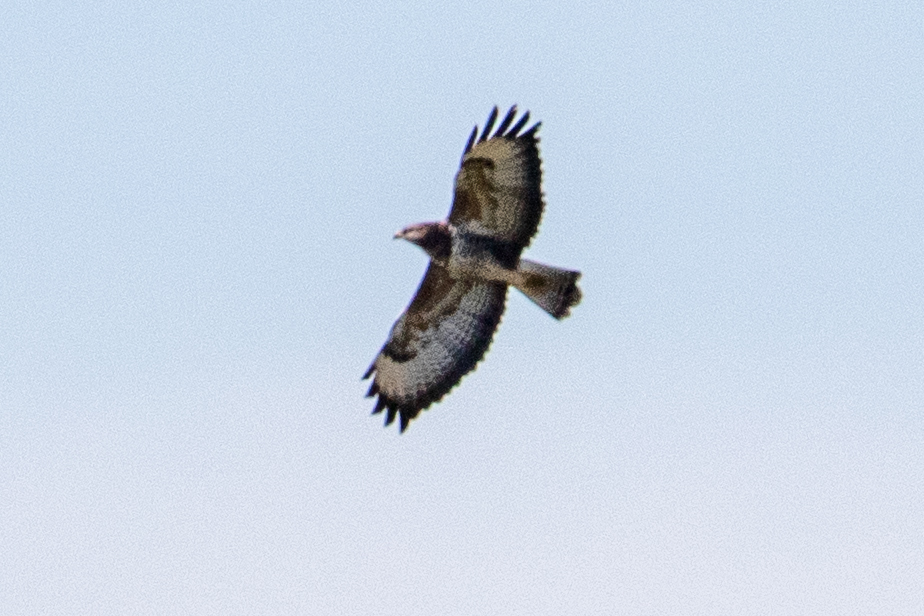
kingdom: Animalia
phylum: Chordata
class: Aves
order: Accipitriformes
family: Accipitridae
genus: Buteo
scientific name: Buteo buteo
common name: Common buzzard
